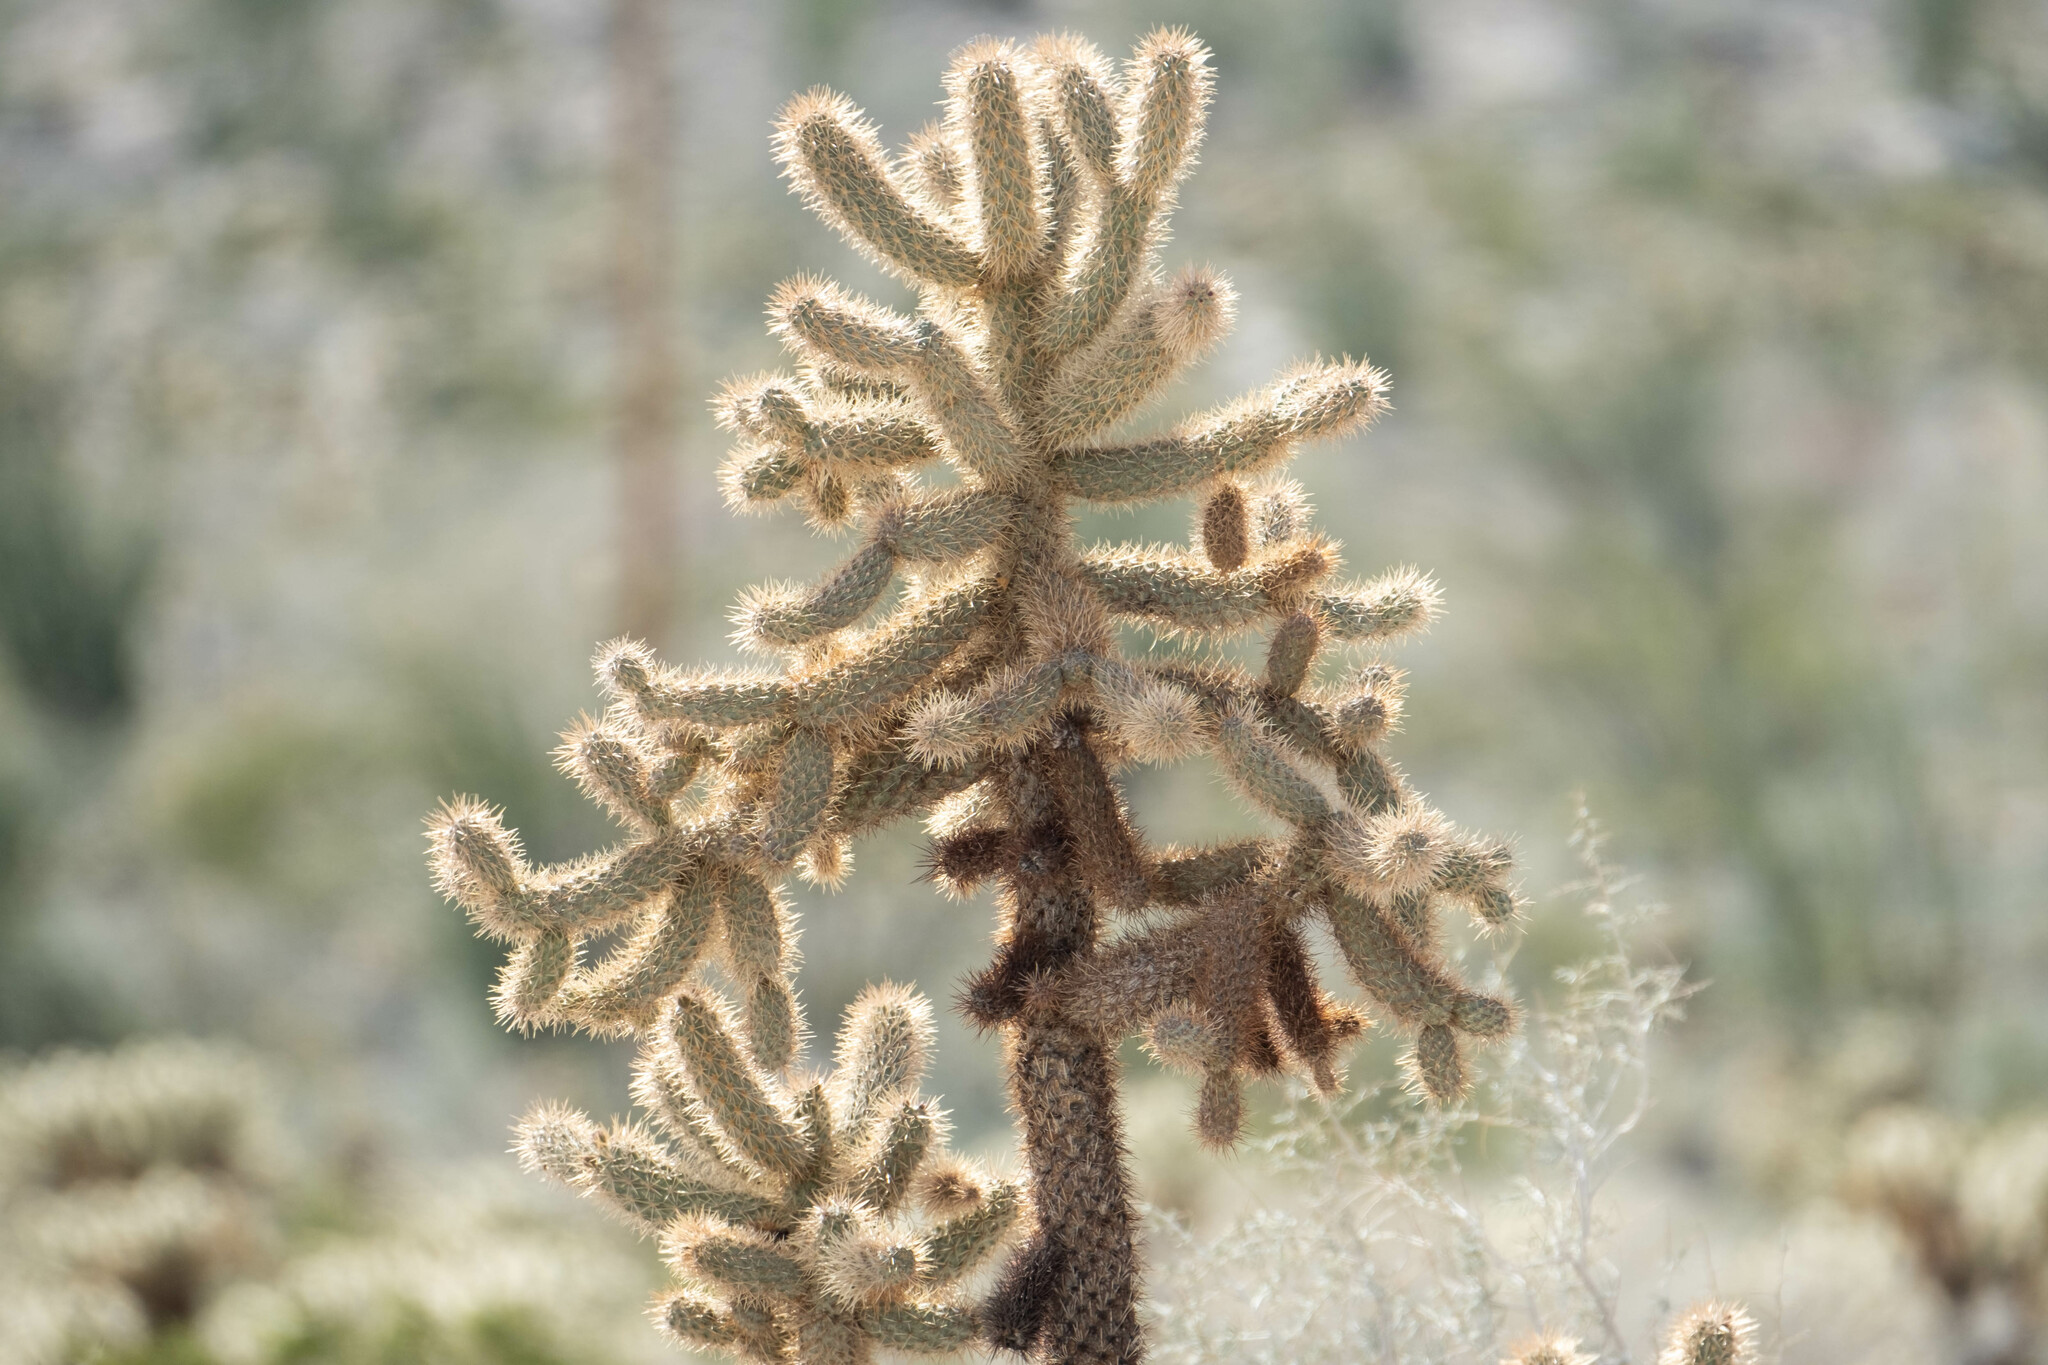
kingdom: Plantae
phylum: Tracheophyta
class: Magnoliopsida
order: Caryophyllales
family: Cactaceae
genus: Cylindropuntia
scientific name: Cylindropuntia fosbergii
